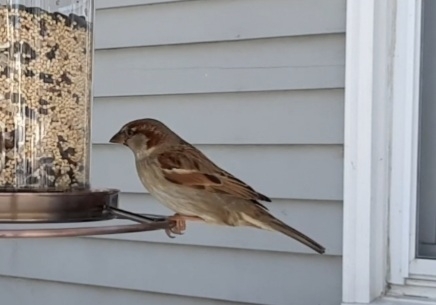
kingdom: Animalia
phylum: Chordata
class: Aves
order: Passeriformes
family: Passeridae
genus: Passer
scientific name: Passer domesticus
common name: House sparrow
